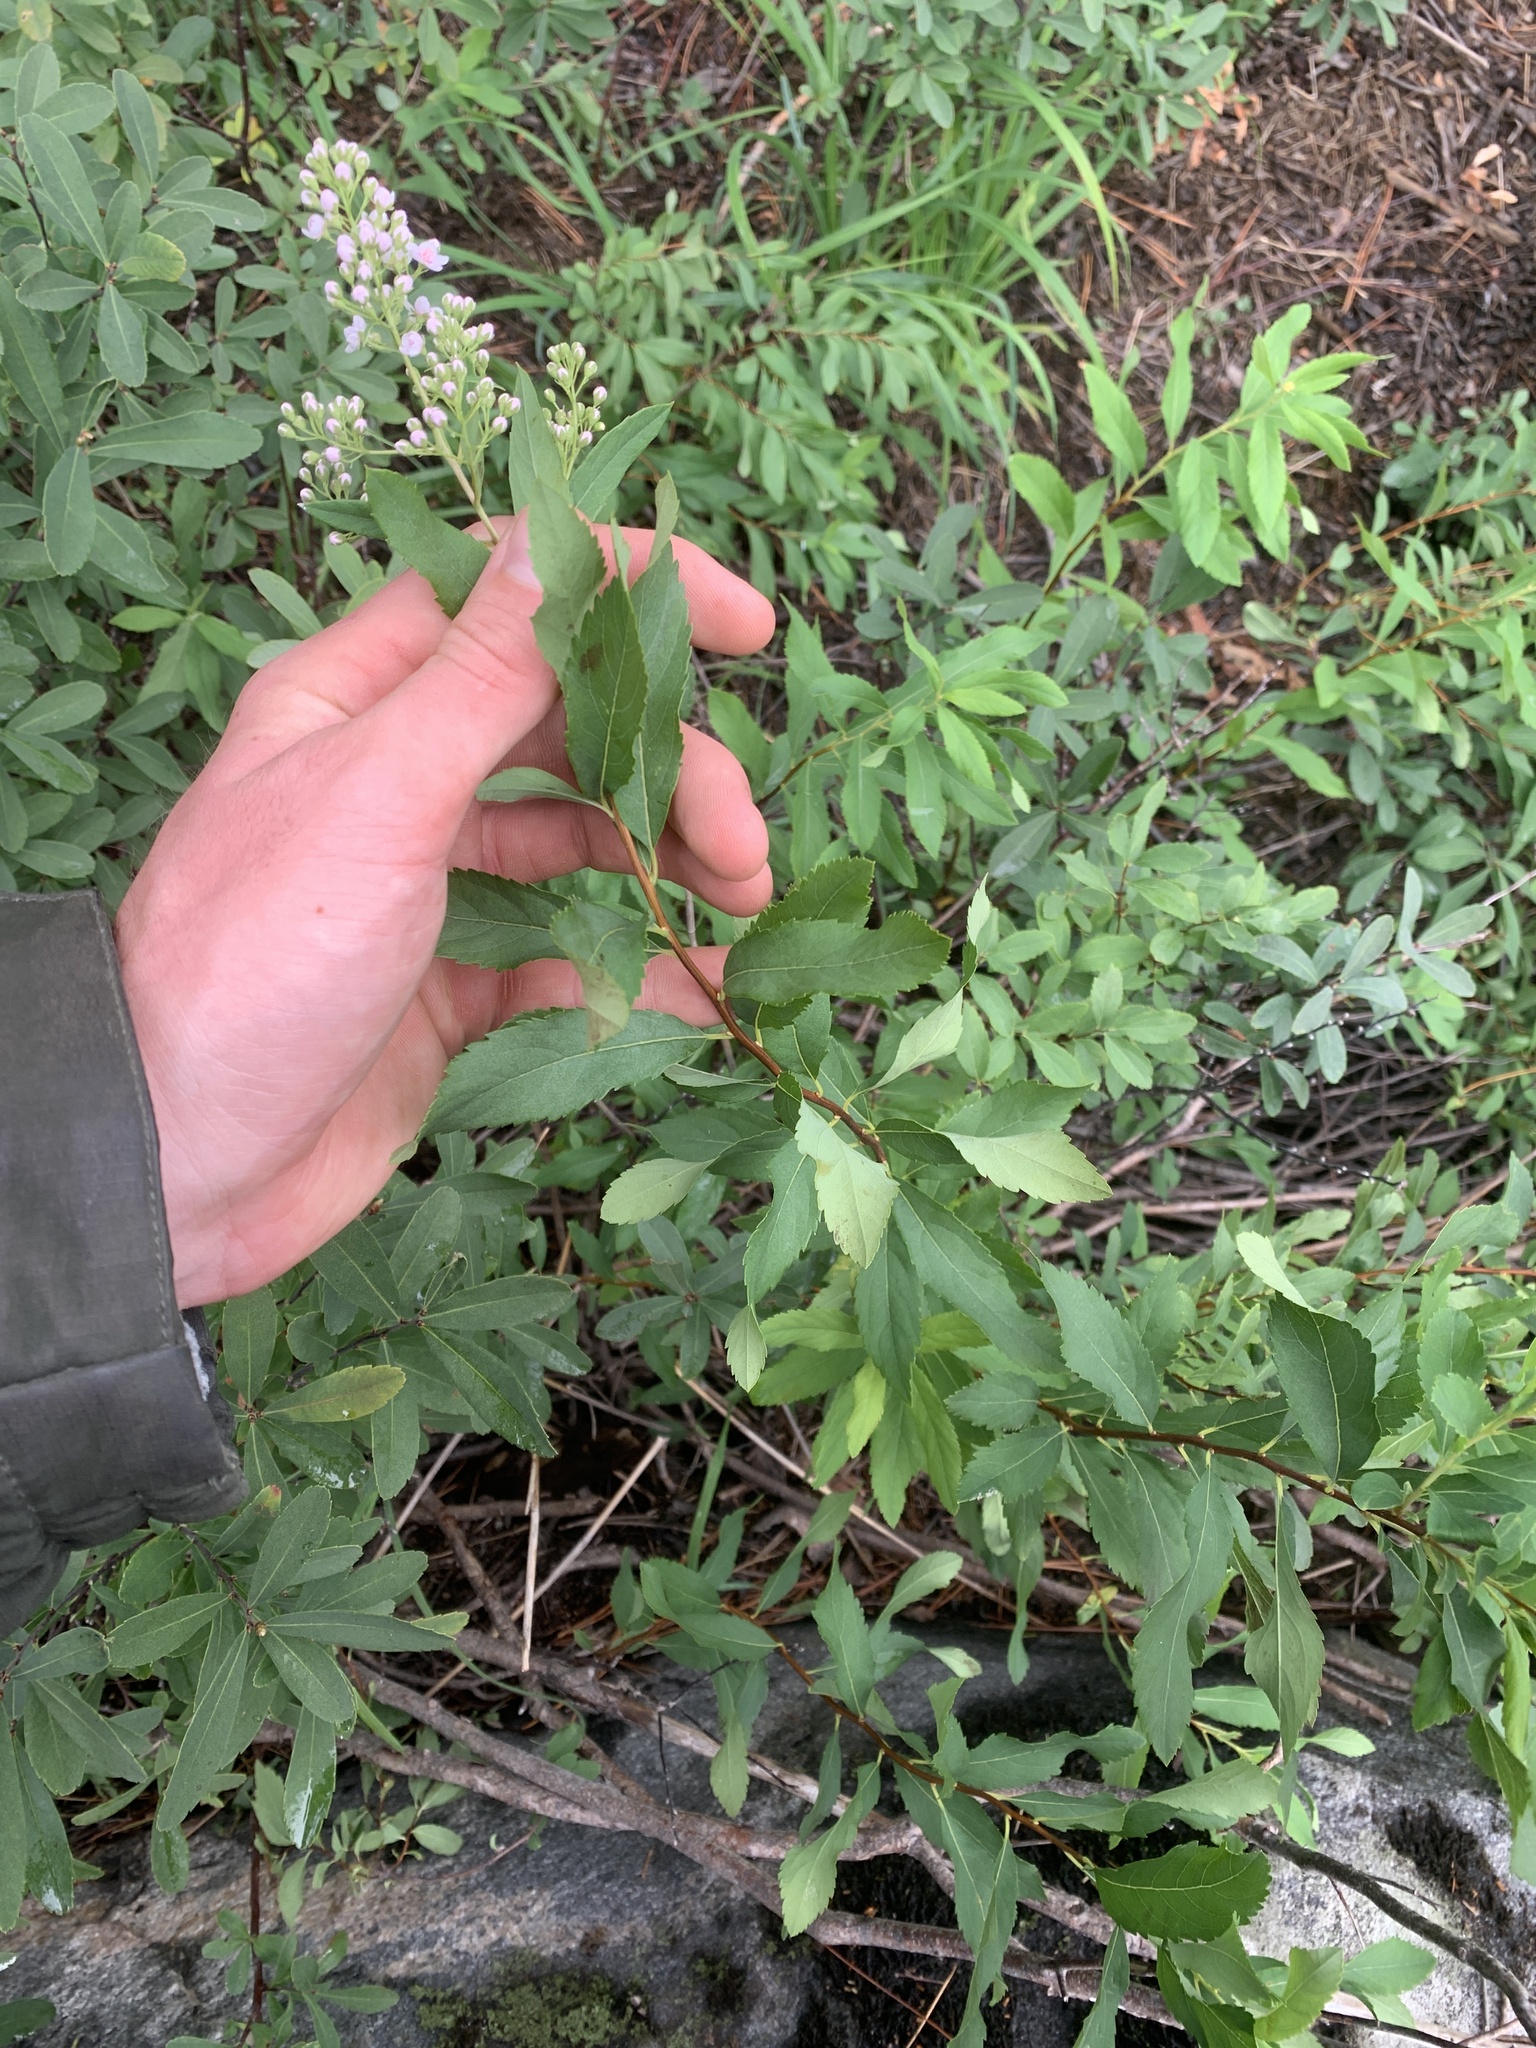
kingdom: Plantae
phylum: Tracheophyta
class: Magnoliopsida
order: Rosales
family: Rosaceae
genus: Spiraea
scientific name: Spiraea alba
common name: Pale bridewort
